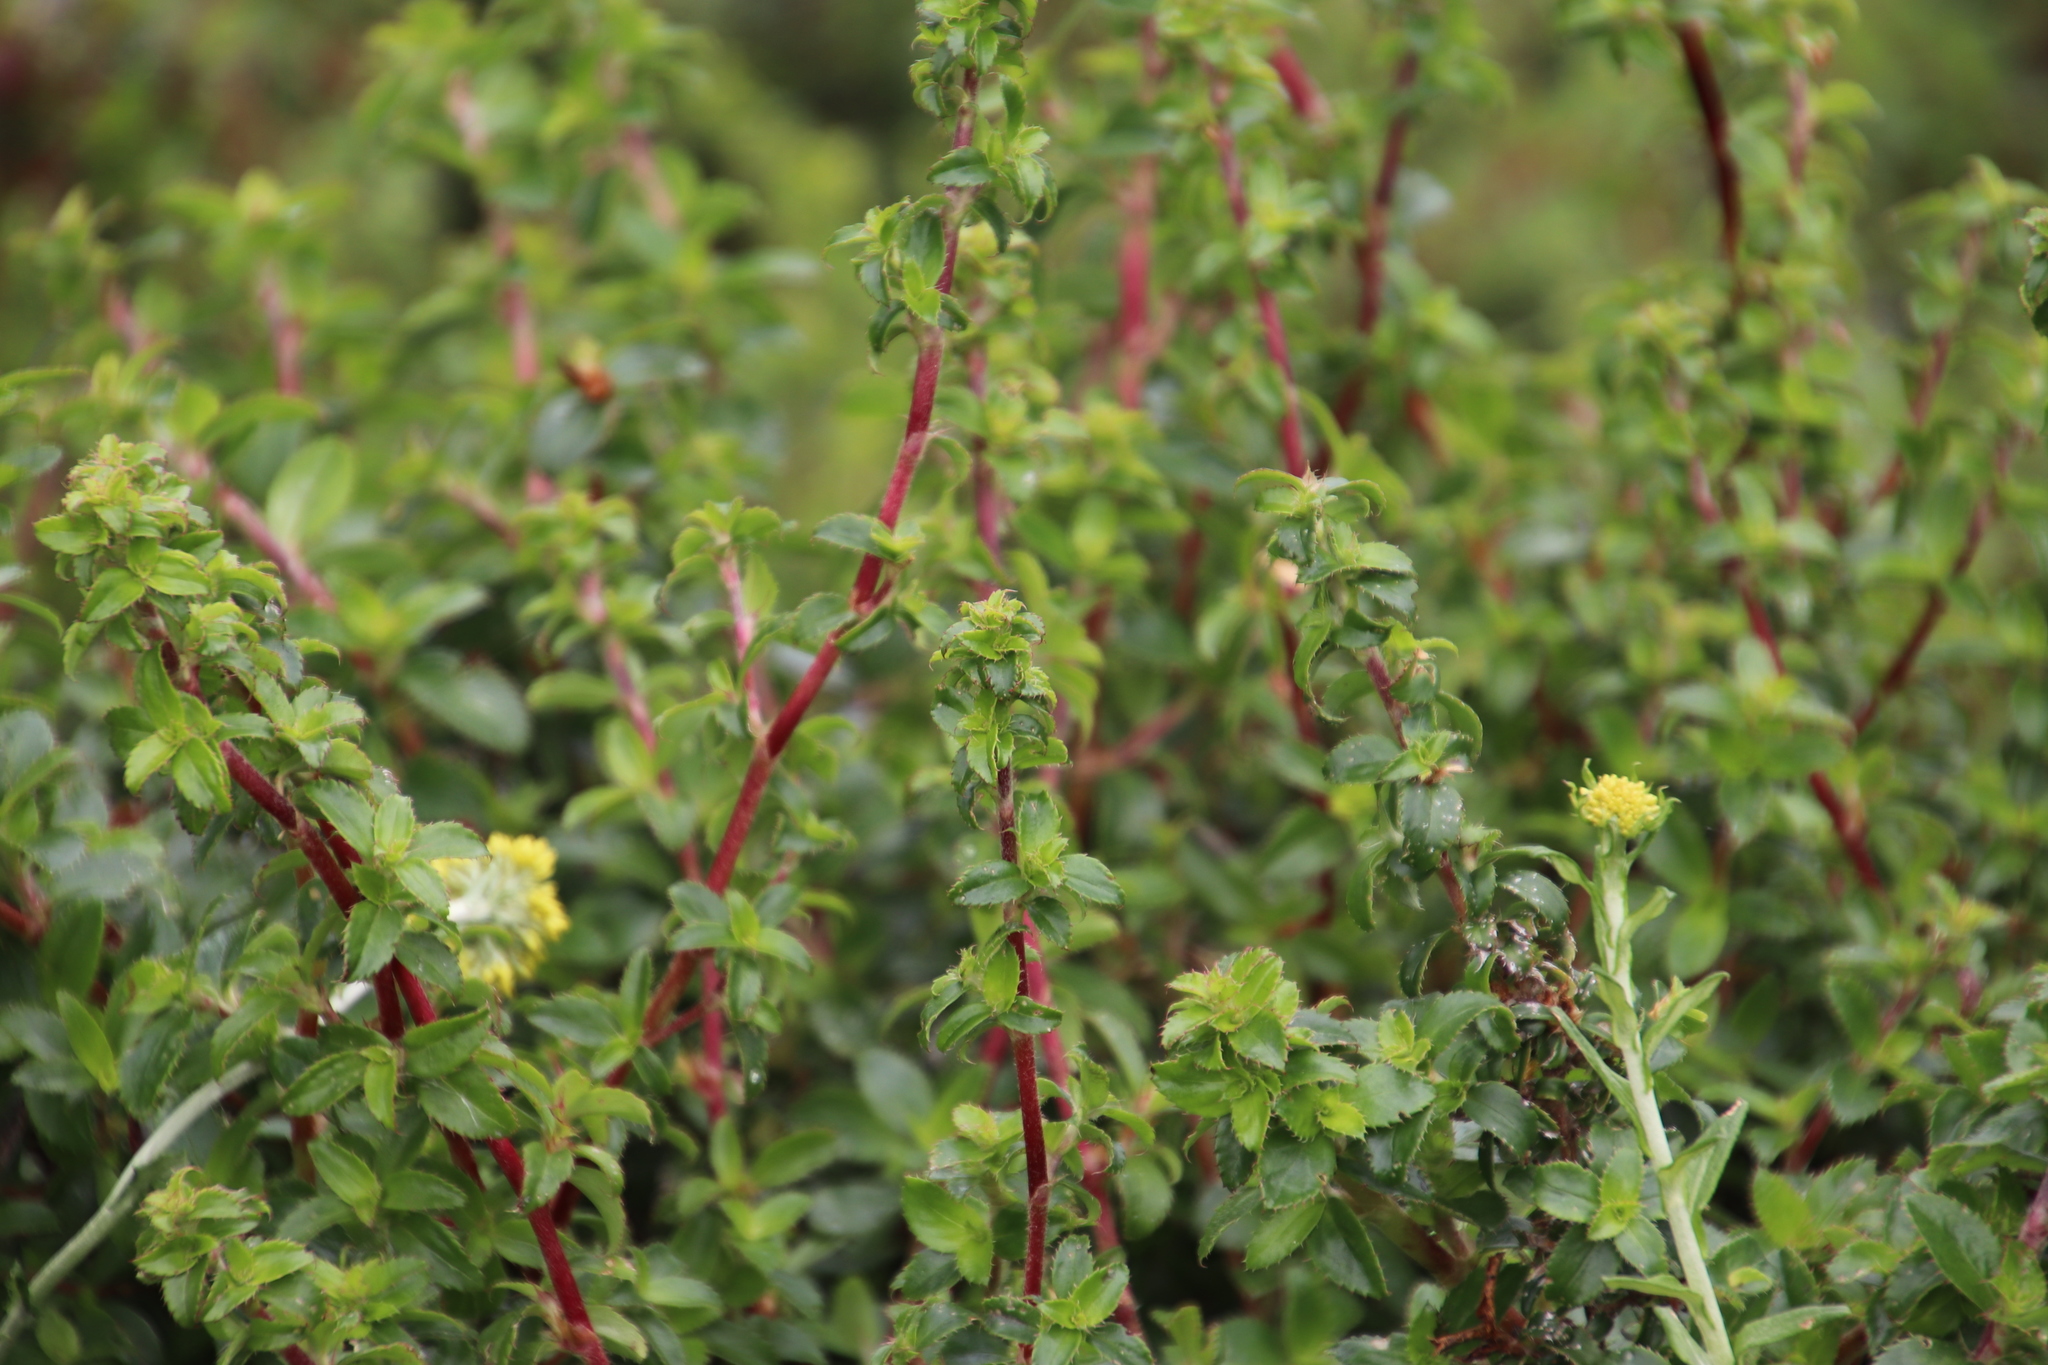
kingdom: Plantae
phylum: Tracheophyta
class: Magnoliopsida
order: Rosales
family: Rosaceae
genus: Cliffortia
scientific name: Cliffortia ferruginea
